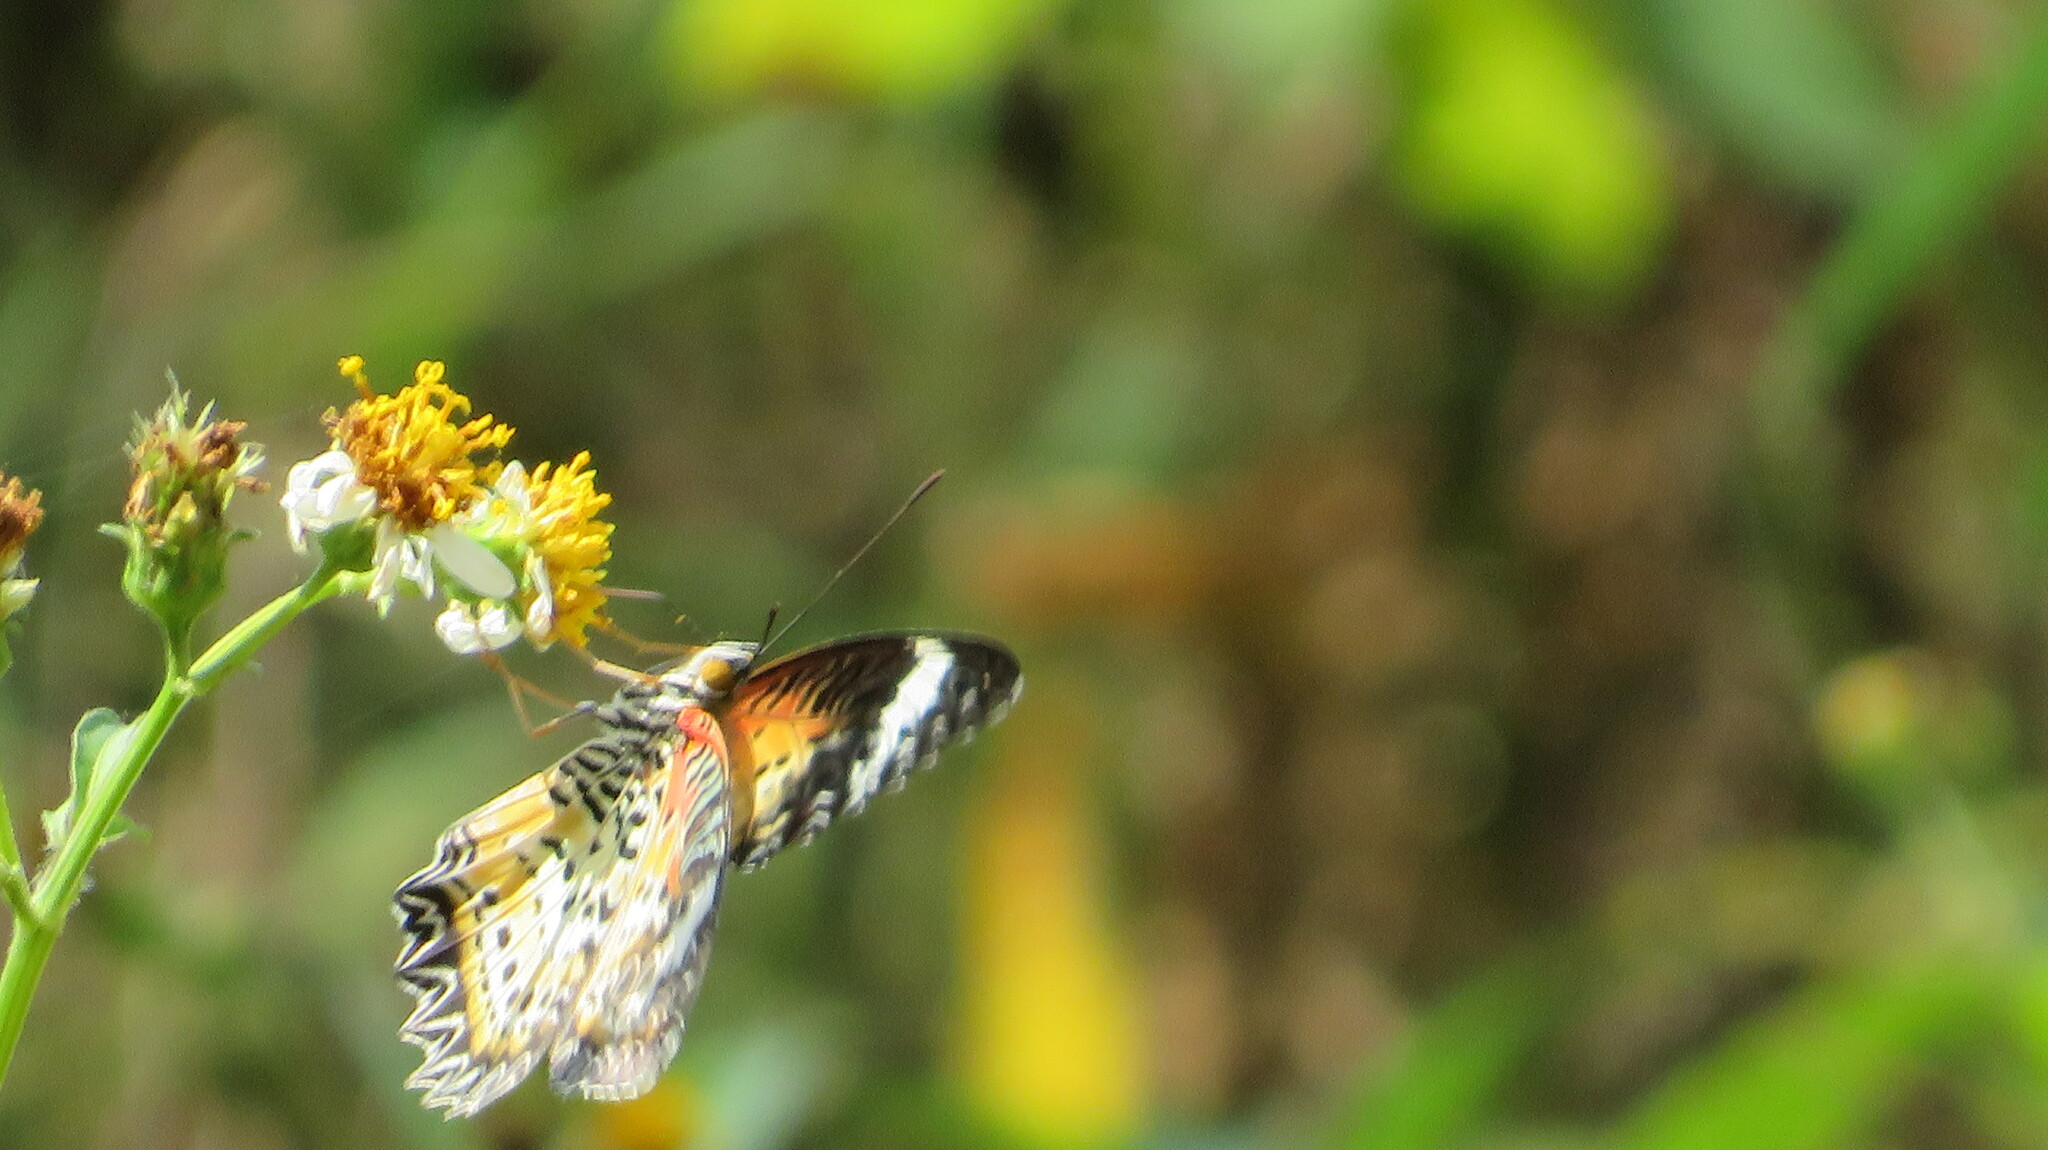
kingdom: Animalia
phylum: Arthropoda
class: Insecta
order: Lepidoptera
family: Nymphalidae
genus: Cethosia
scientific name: Cethosia cyane
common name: Leopard lacewing butterfly
